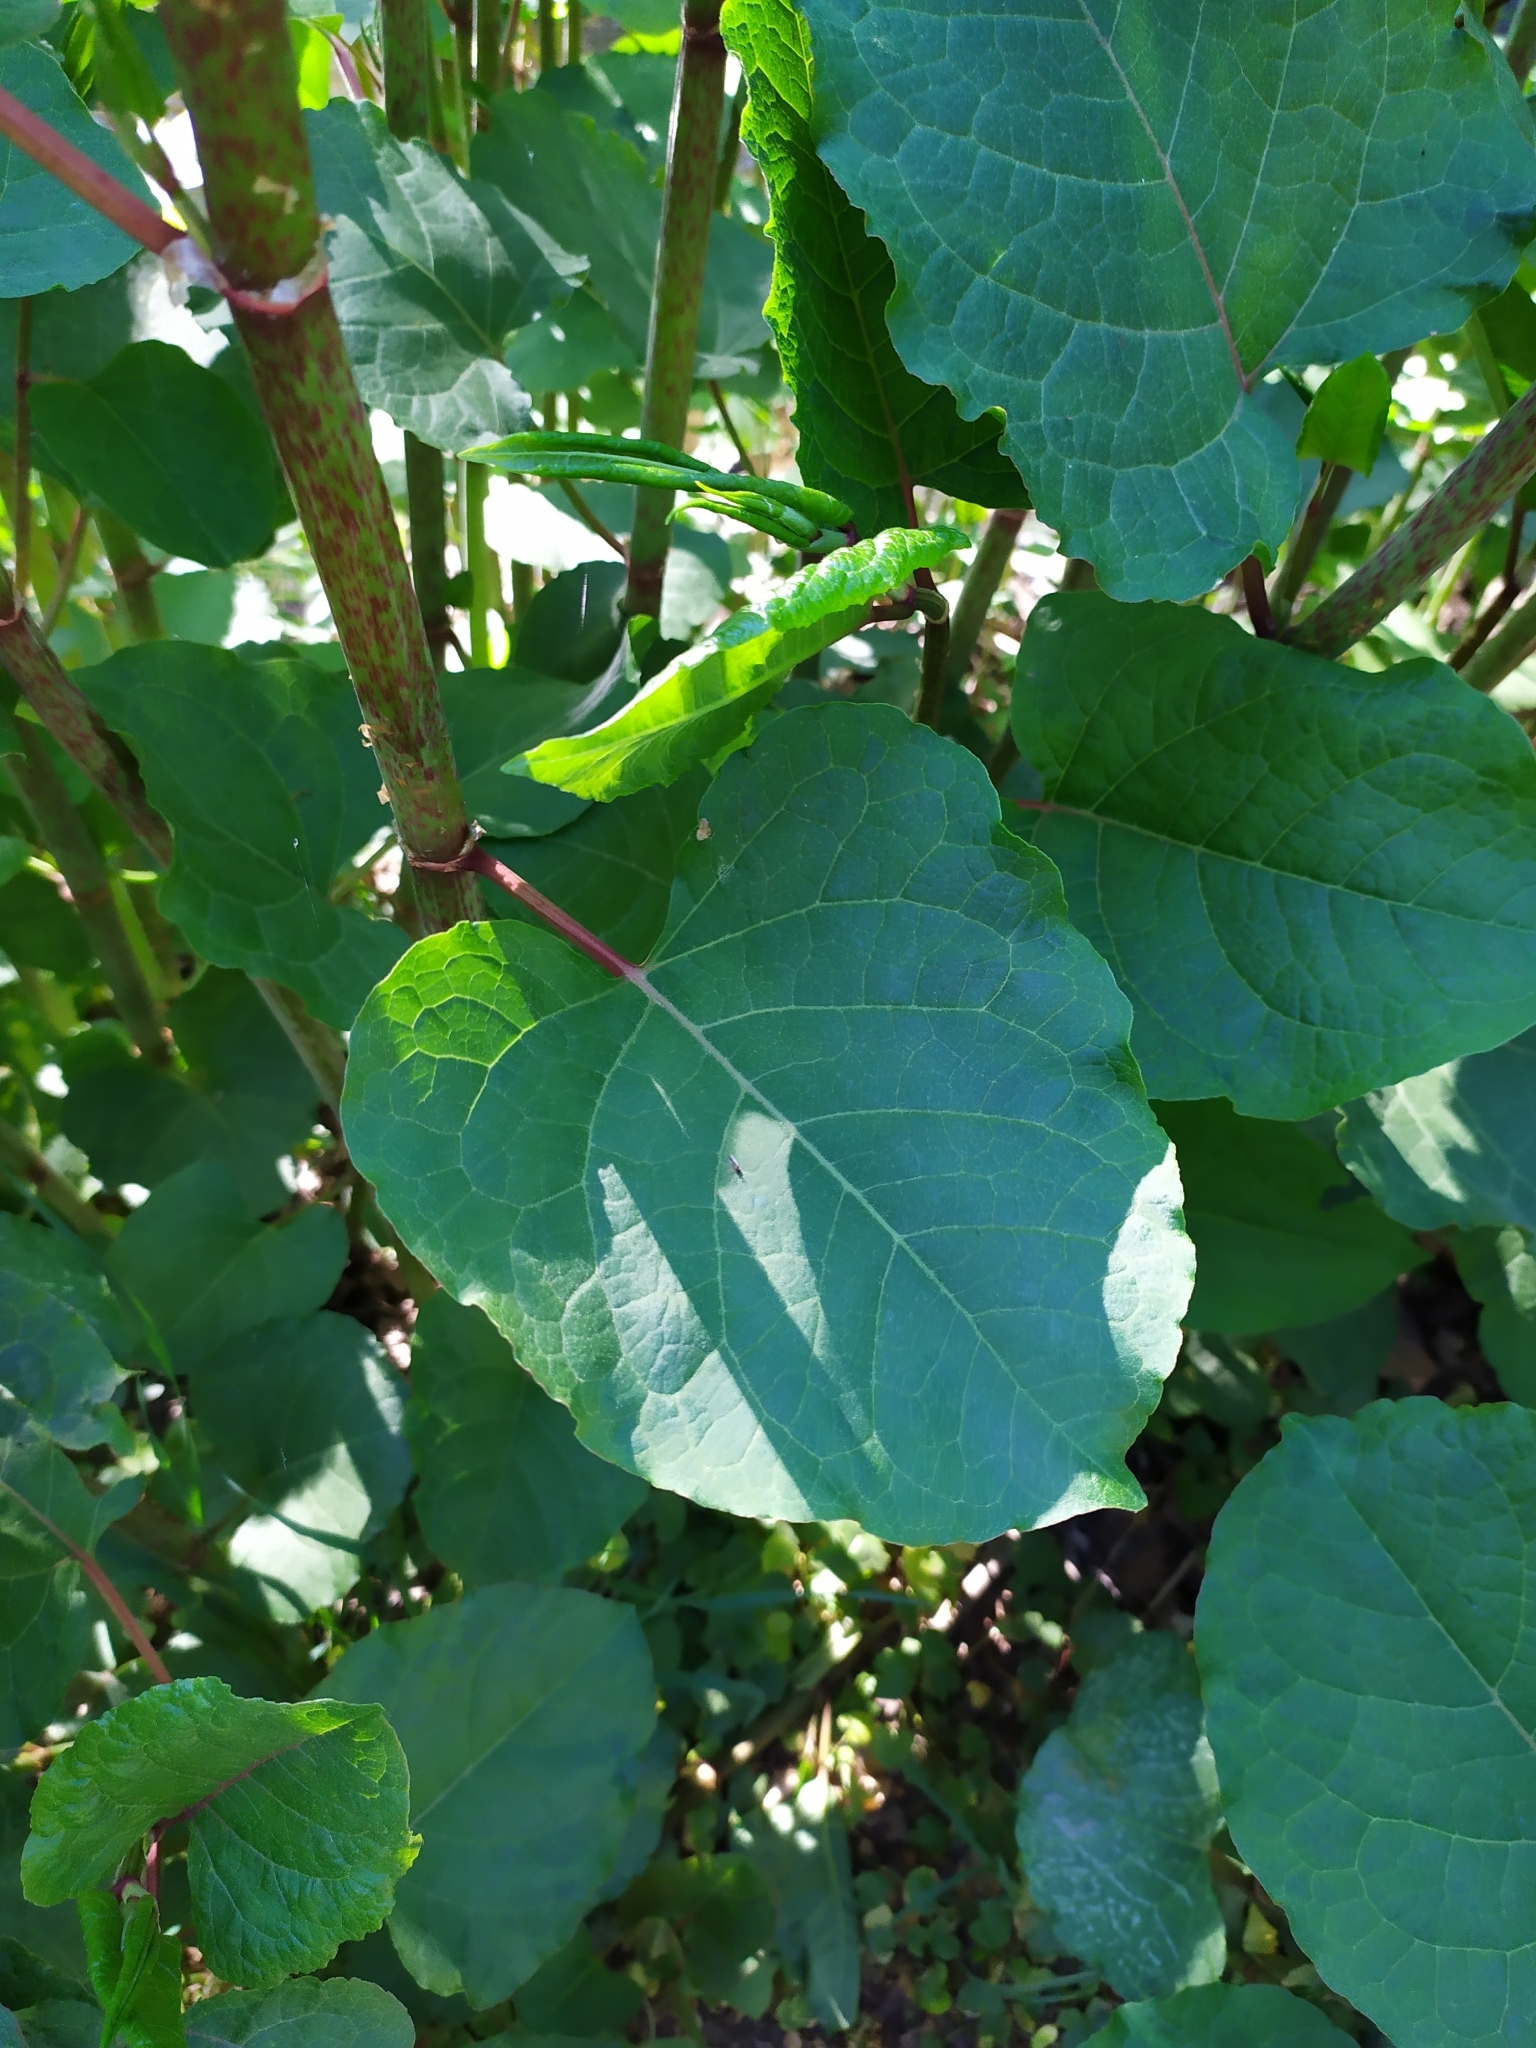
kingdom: Plantae
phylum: Tracheophyta
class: Magnoliopsida
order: Caryophyllales
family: Polygonaceae
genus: Reynoutria
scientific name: Reynoutria bohemica
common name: Bohemian knotweed
